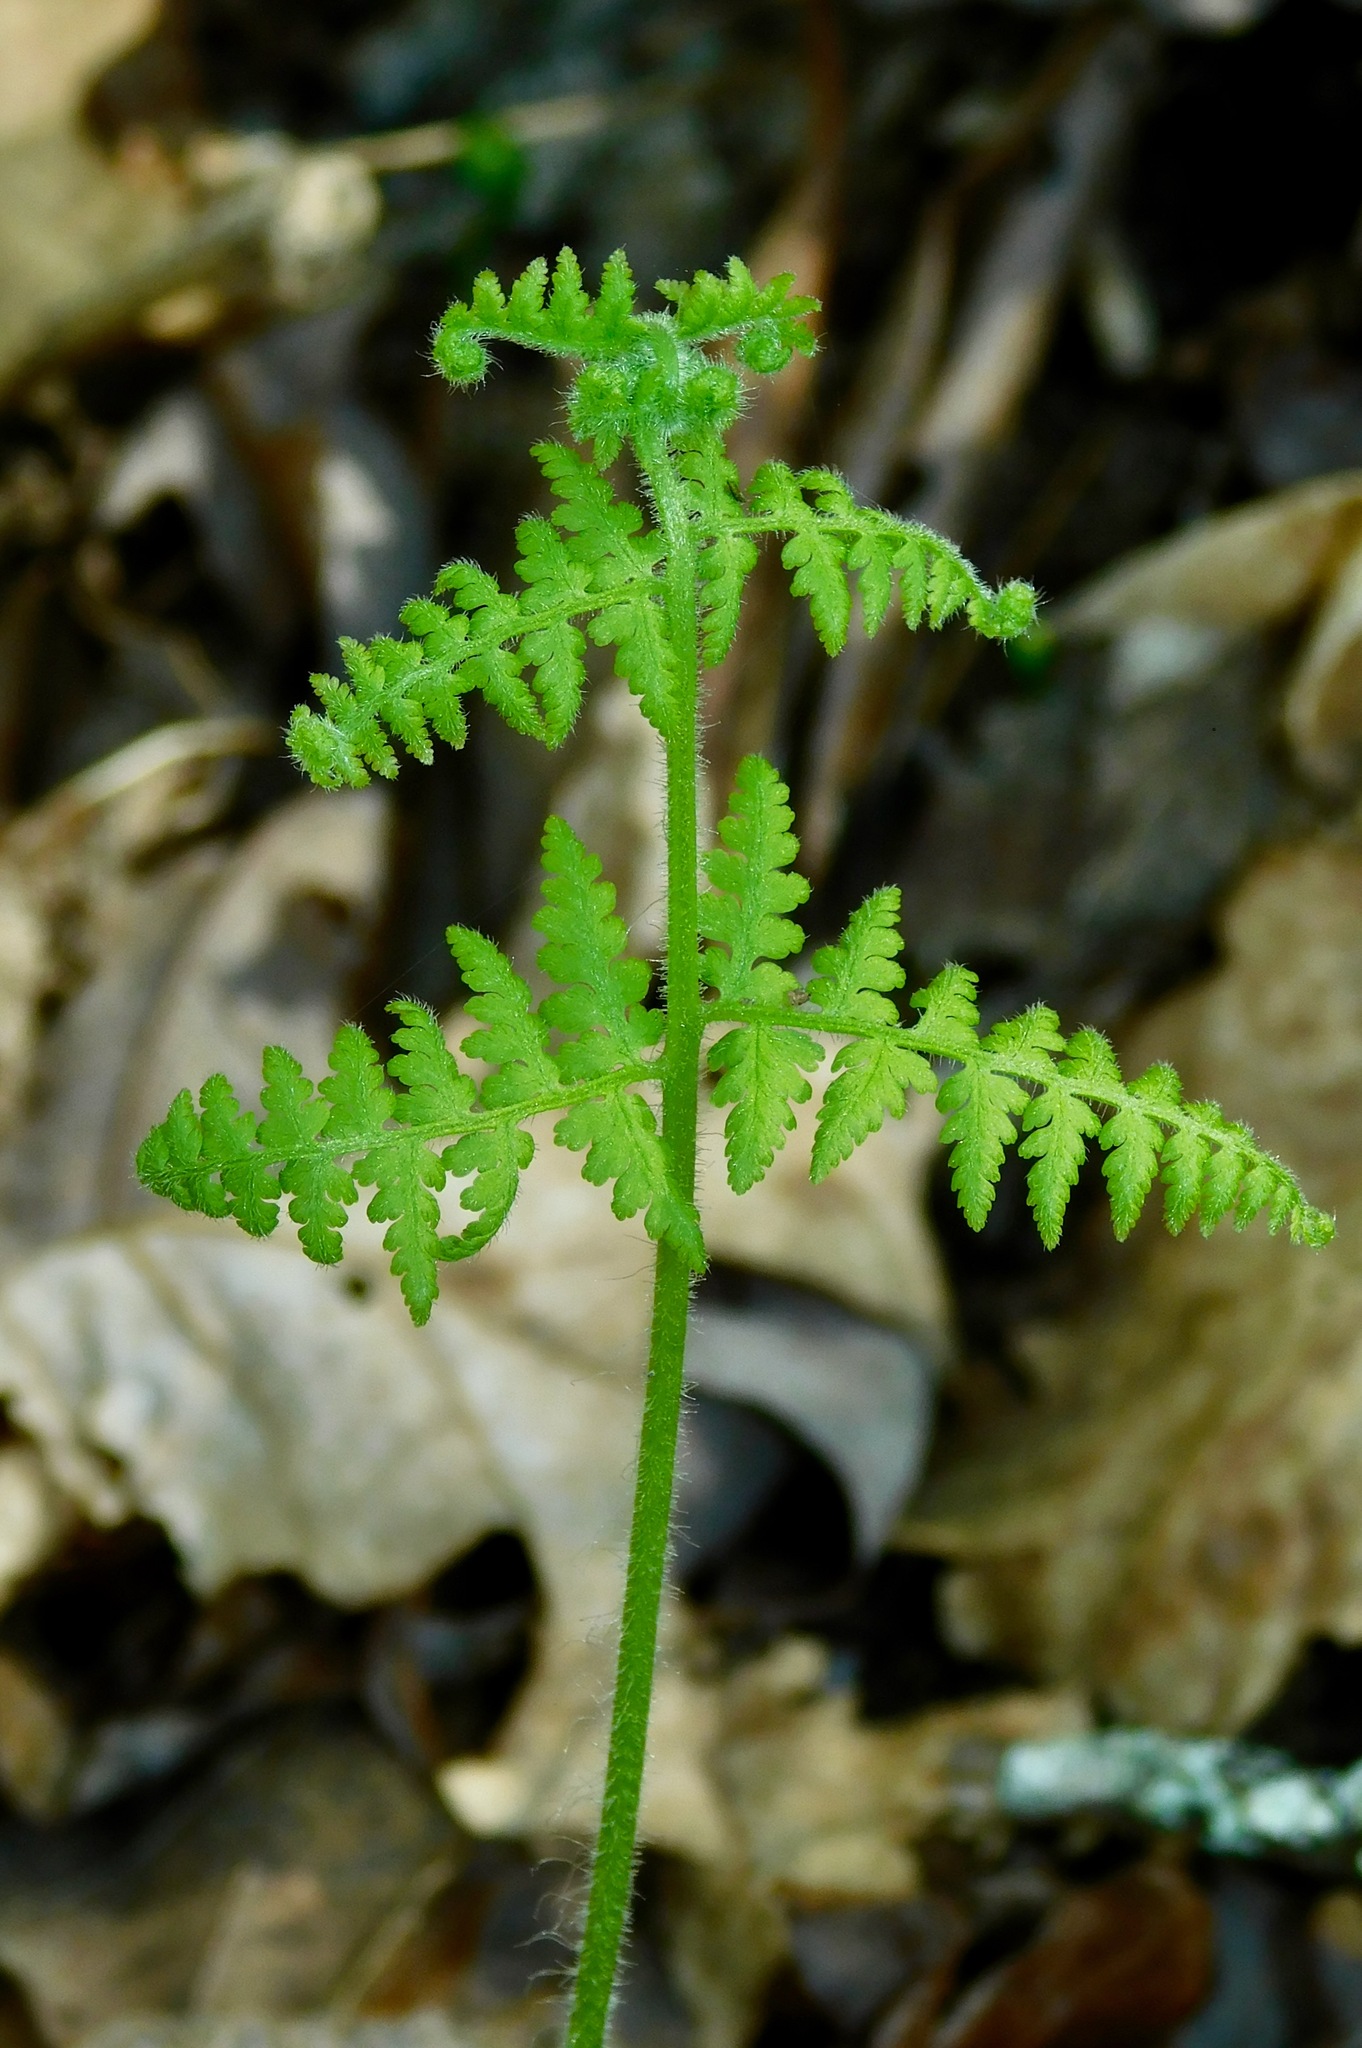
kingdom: Plantae
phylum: Tracheophyta
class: Polypodiopsida
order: Polypodiales
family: Dennstaedtiaceae
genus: Sitobolium
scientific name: Sitobolium punctilobum
